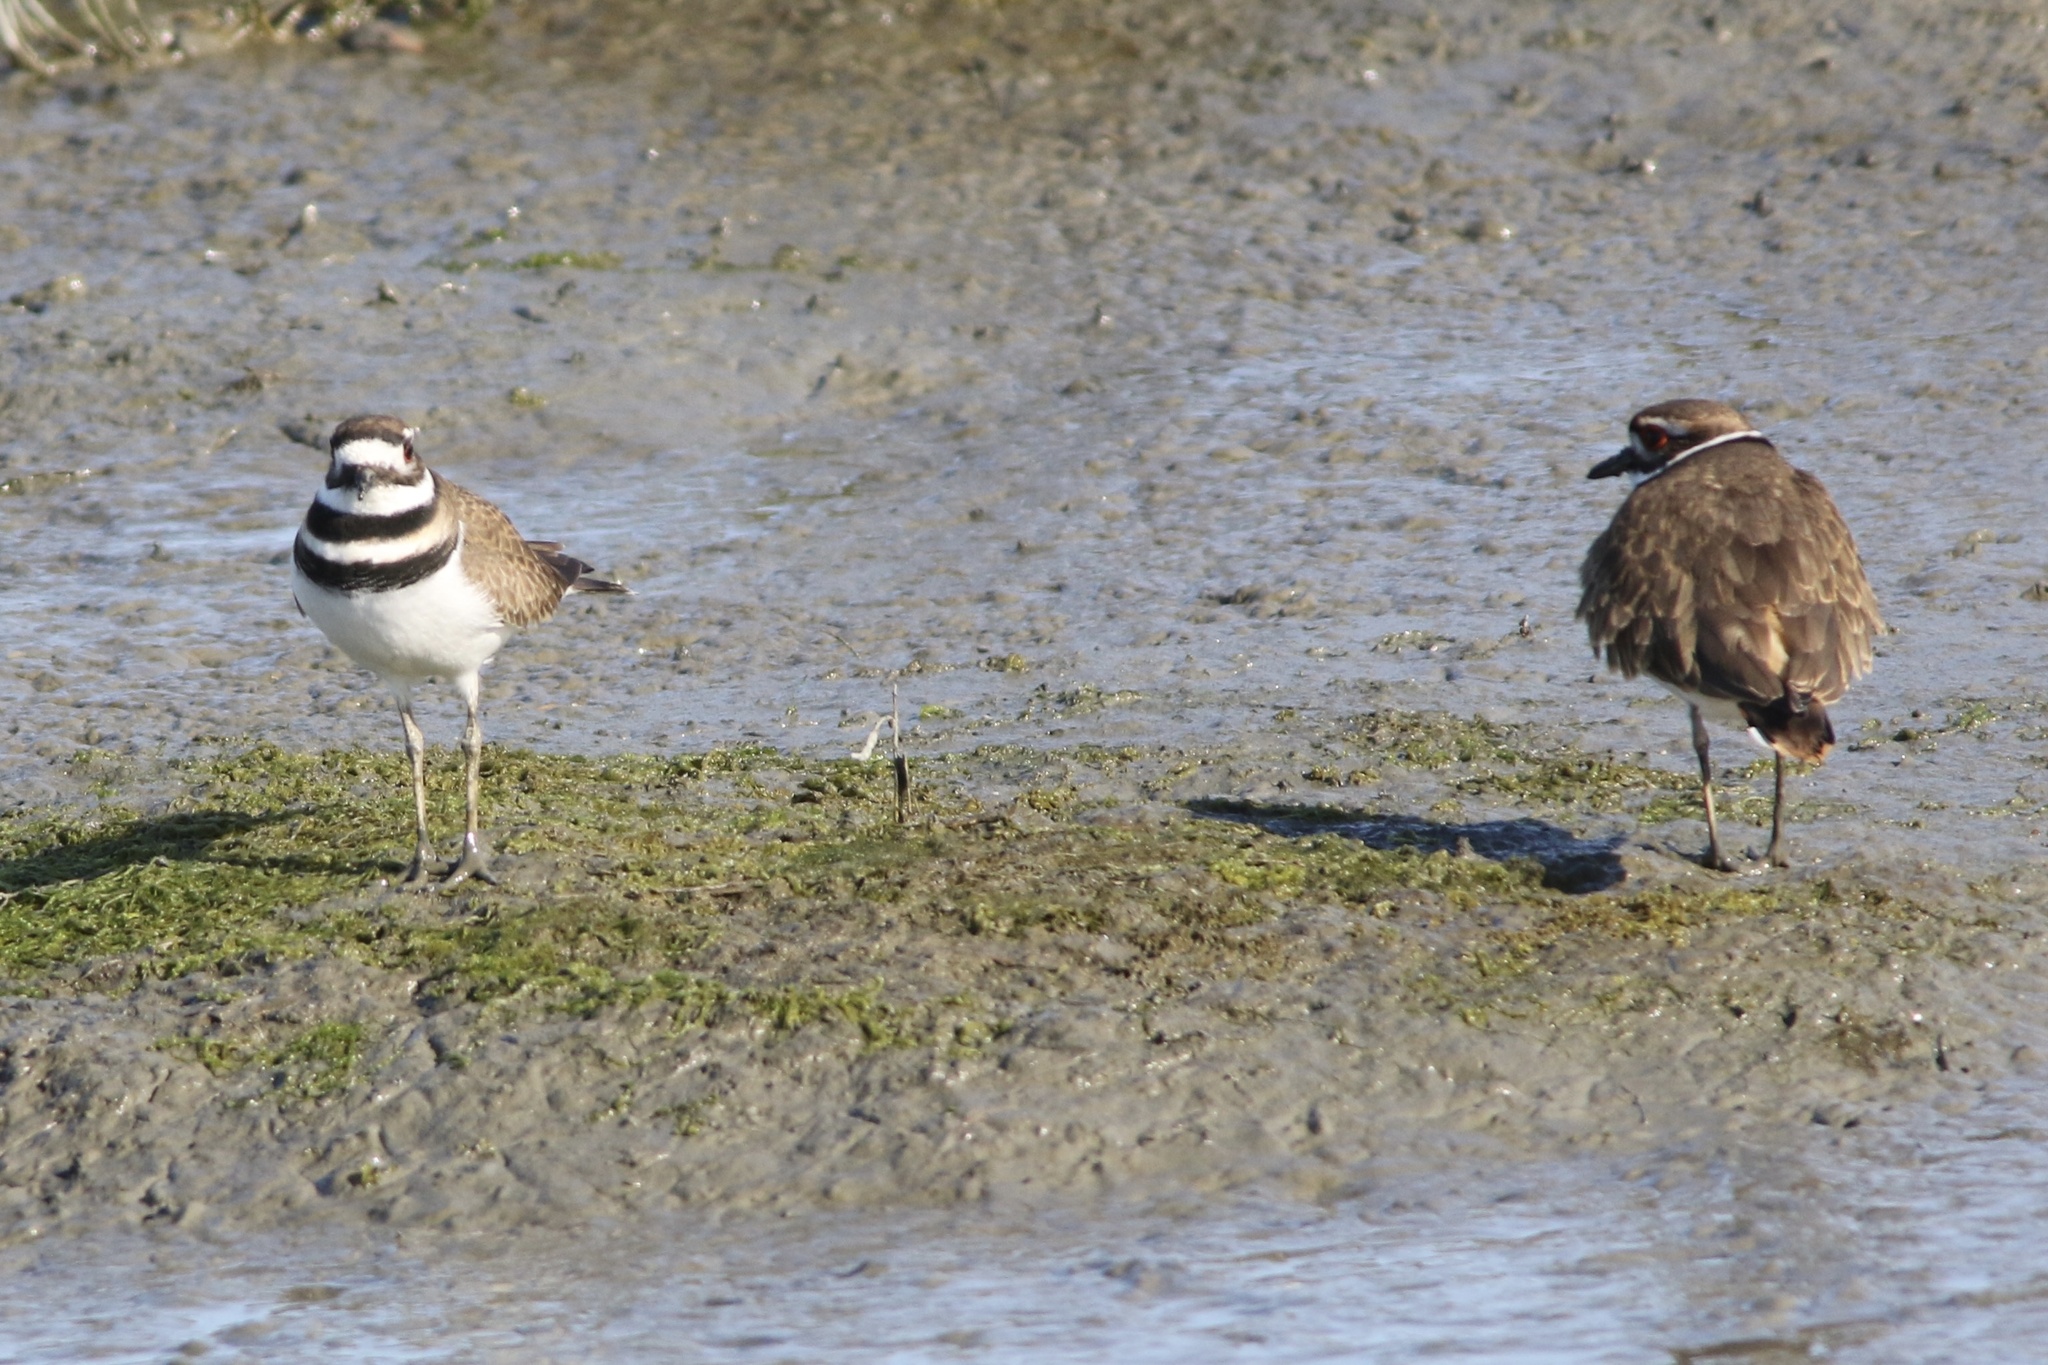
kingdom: Animalia
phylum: Chordata
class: Aves
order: Charadriiformes
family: Charadriidae
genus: Charadrius
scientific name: Charadrius vociferus
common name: Killdeer
